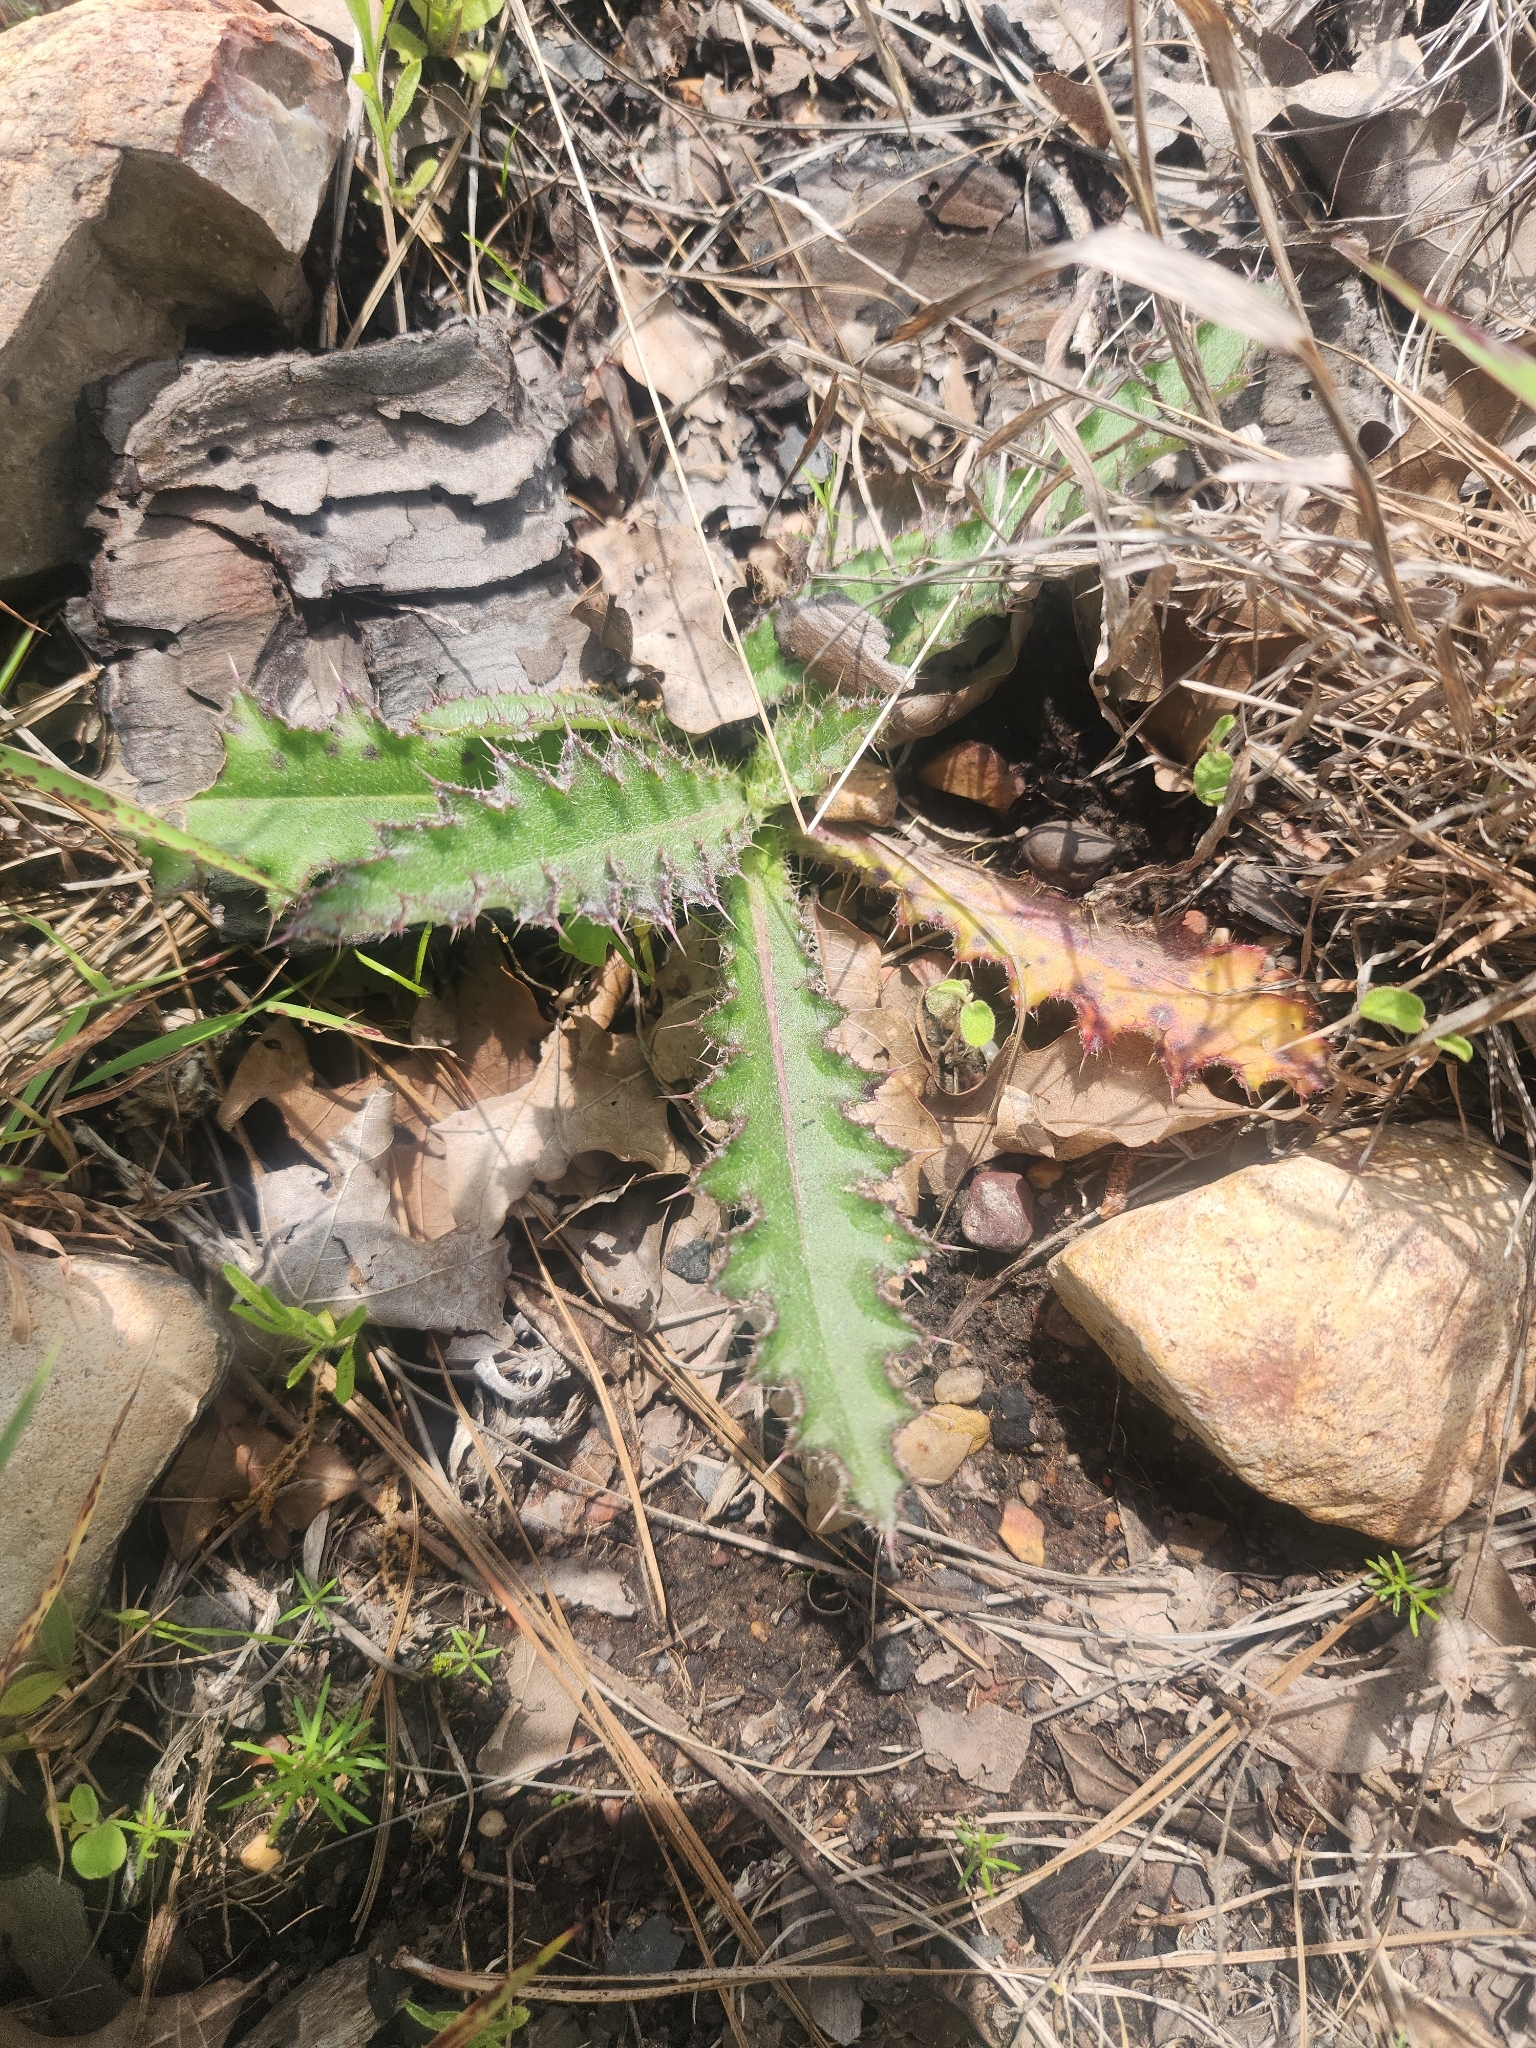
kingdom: Plantae
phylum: Tracheophyta
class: Magnoliopsida
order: Asterales
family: Asteraceae
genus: Cirsium
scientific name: Cirsium horridulum
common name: Bristly thistle
